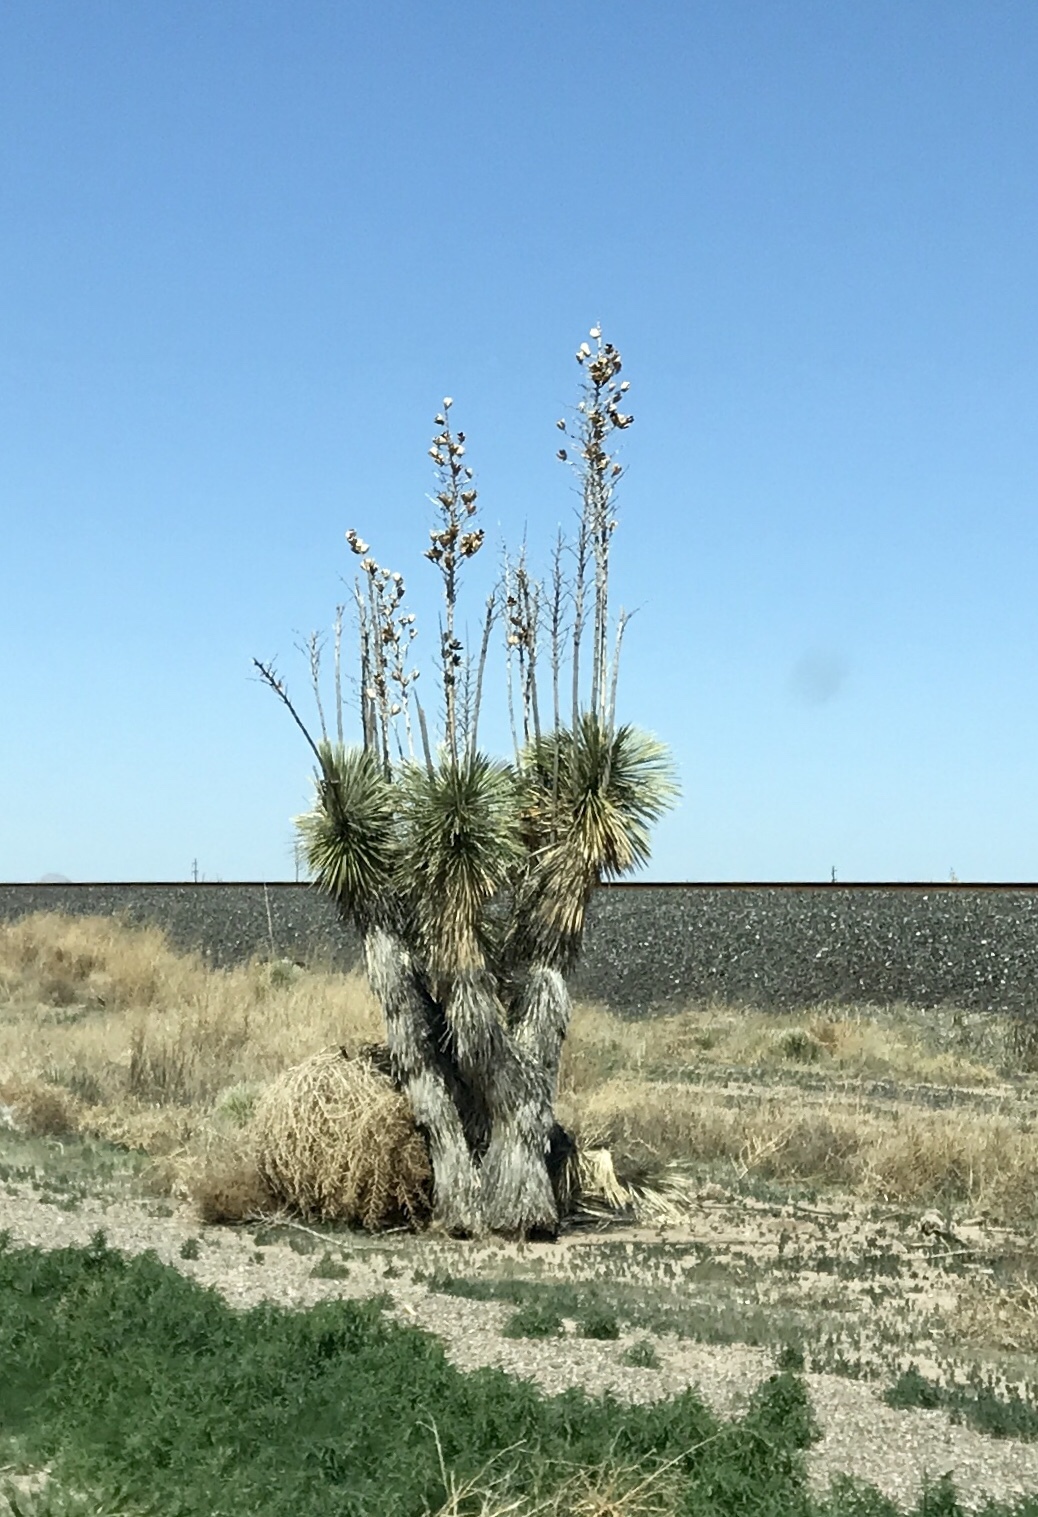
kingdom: Plantae
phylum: Tracheophyta
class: Liliopsida
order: Asparagales
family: Asparagaceae
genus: Yucca
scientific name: Yucca elata
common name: Palmella
